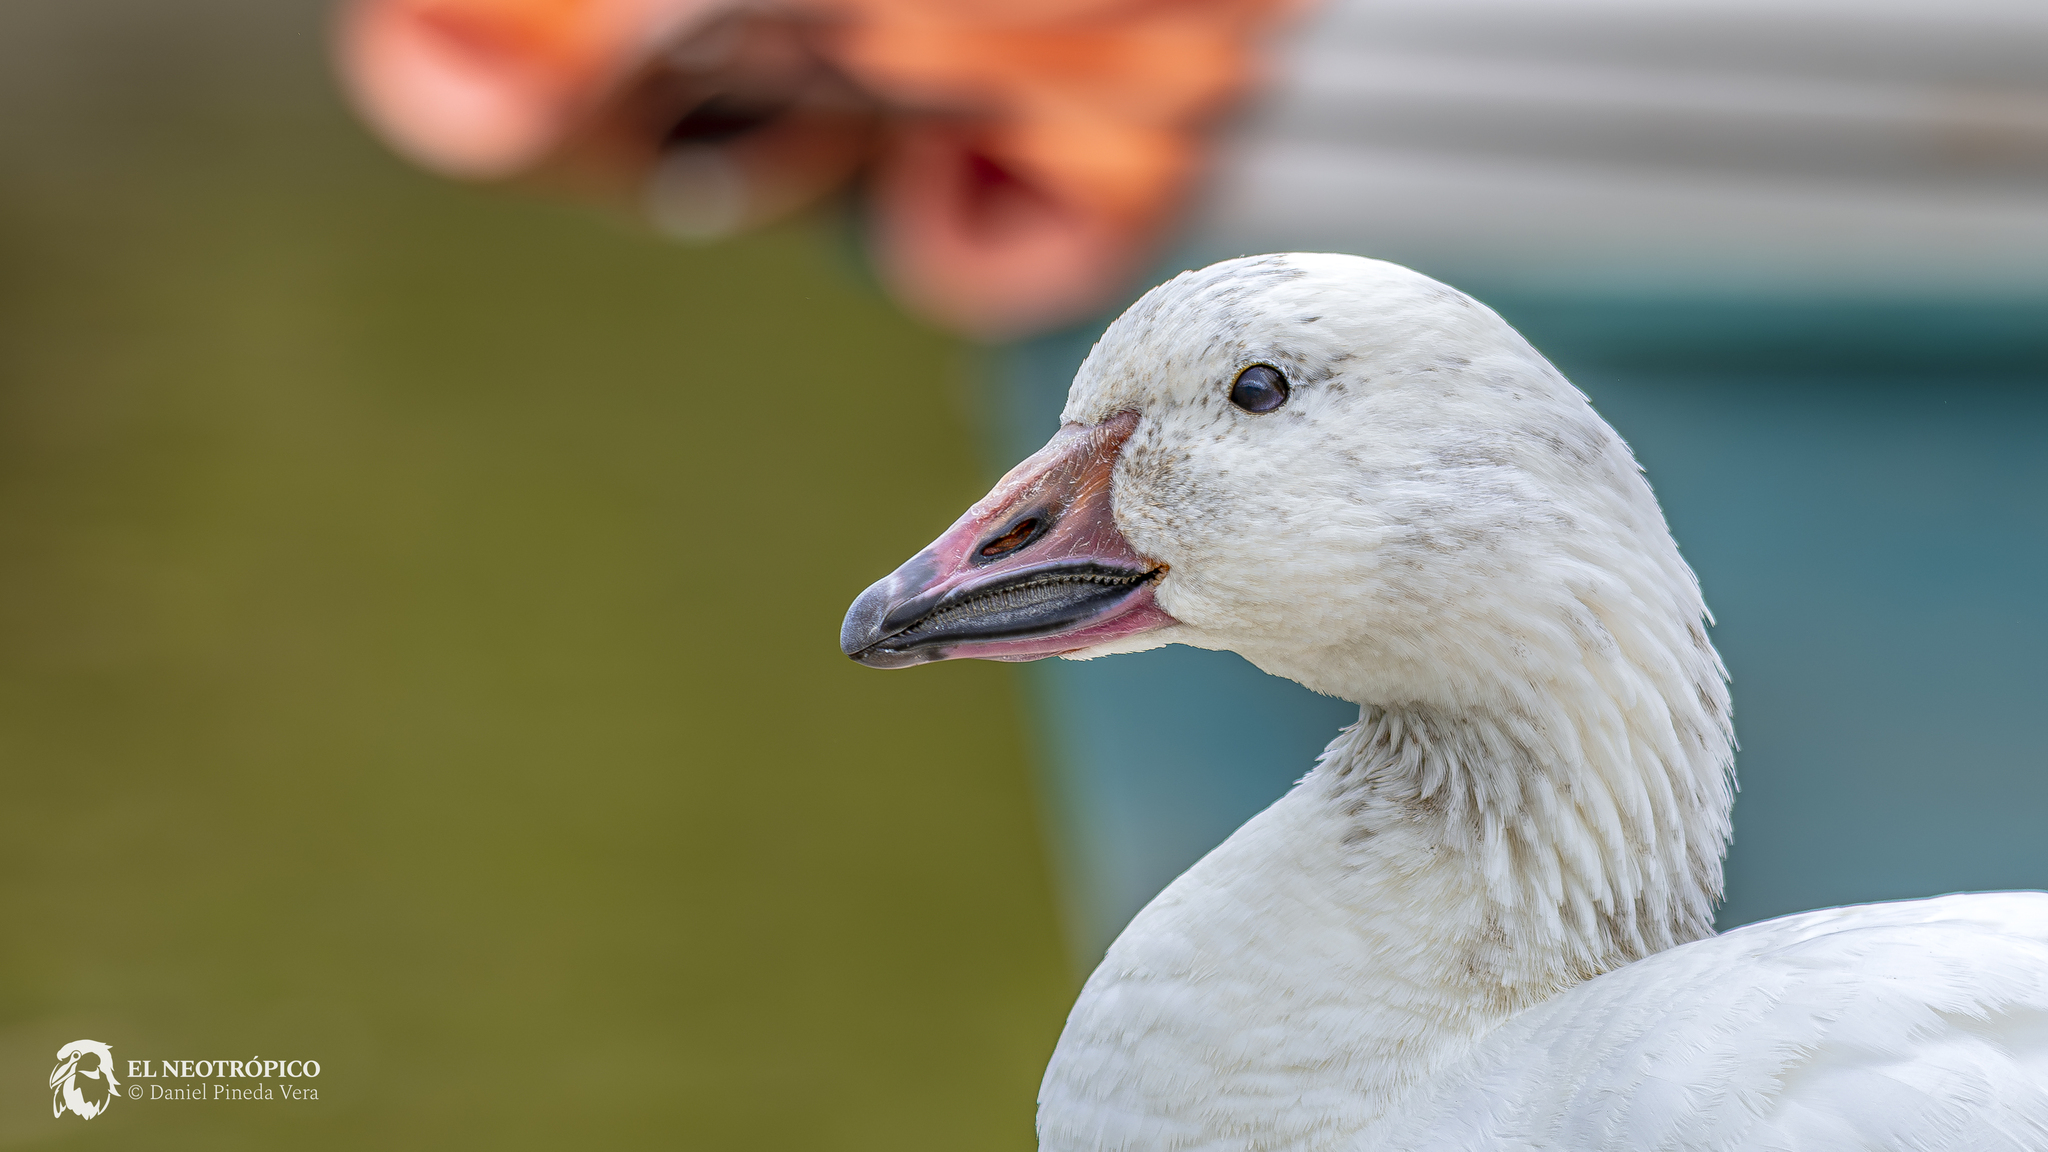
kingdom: Animalia
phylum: Chordata
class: Aves
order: Anseriformes
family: Anatidae
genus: Anser
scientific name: Anser caerulescens
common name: Snow goose
